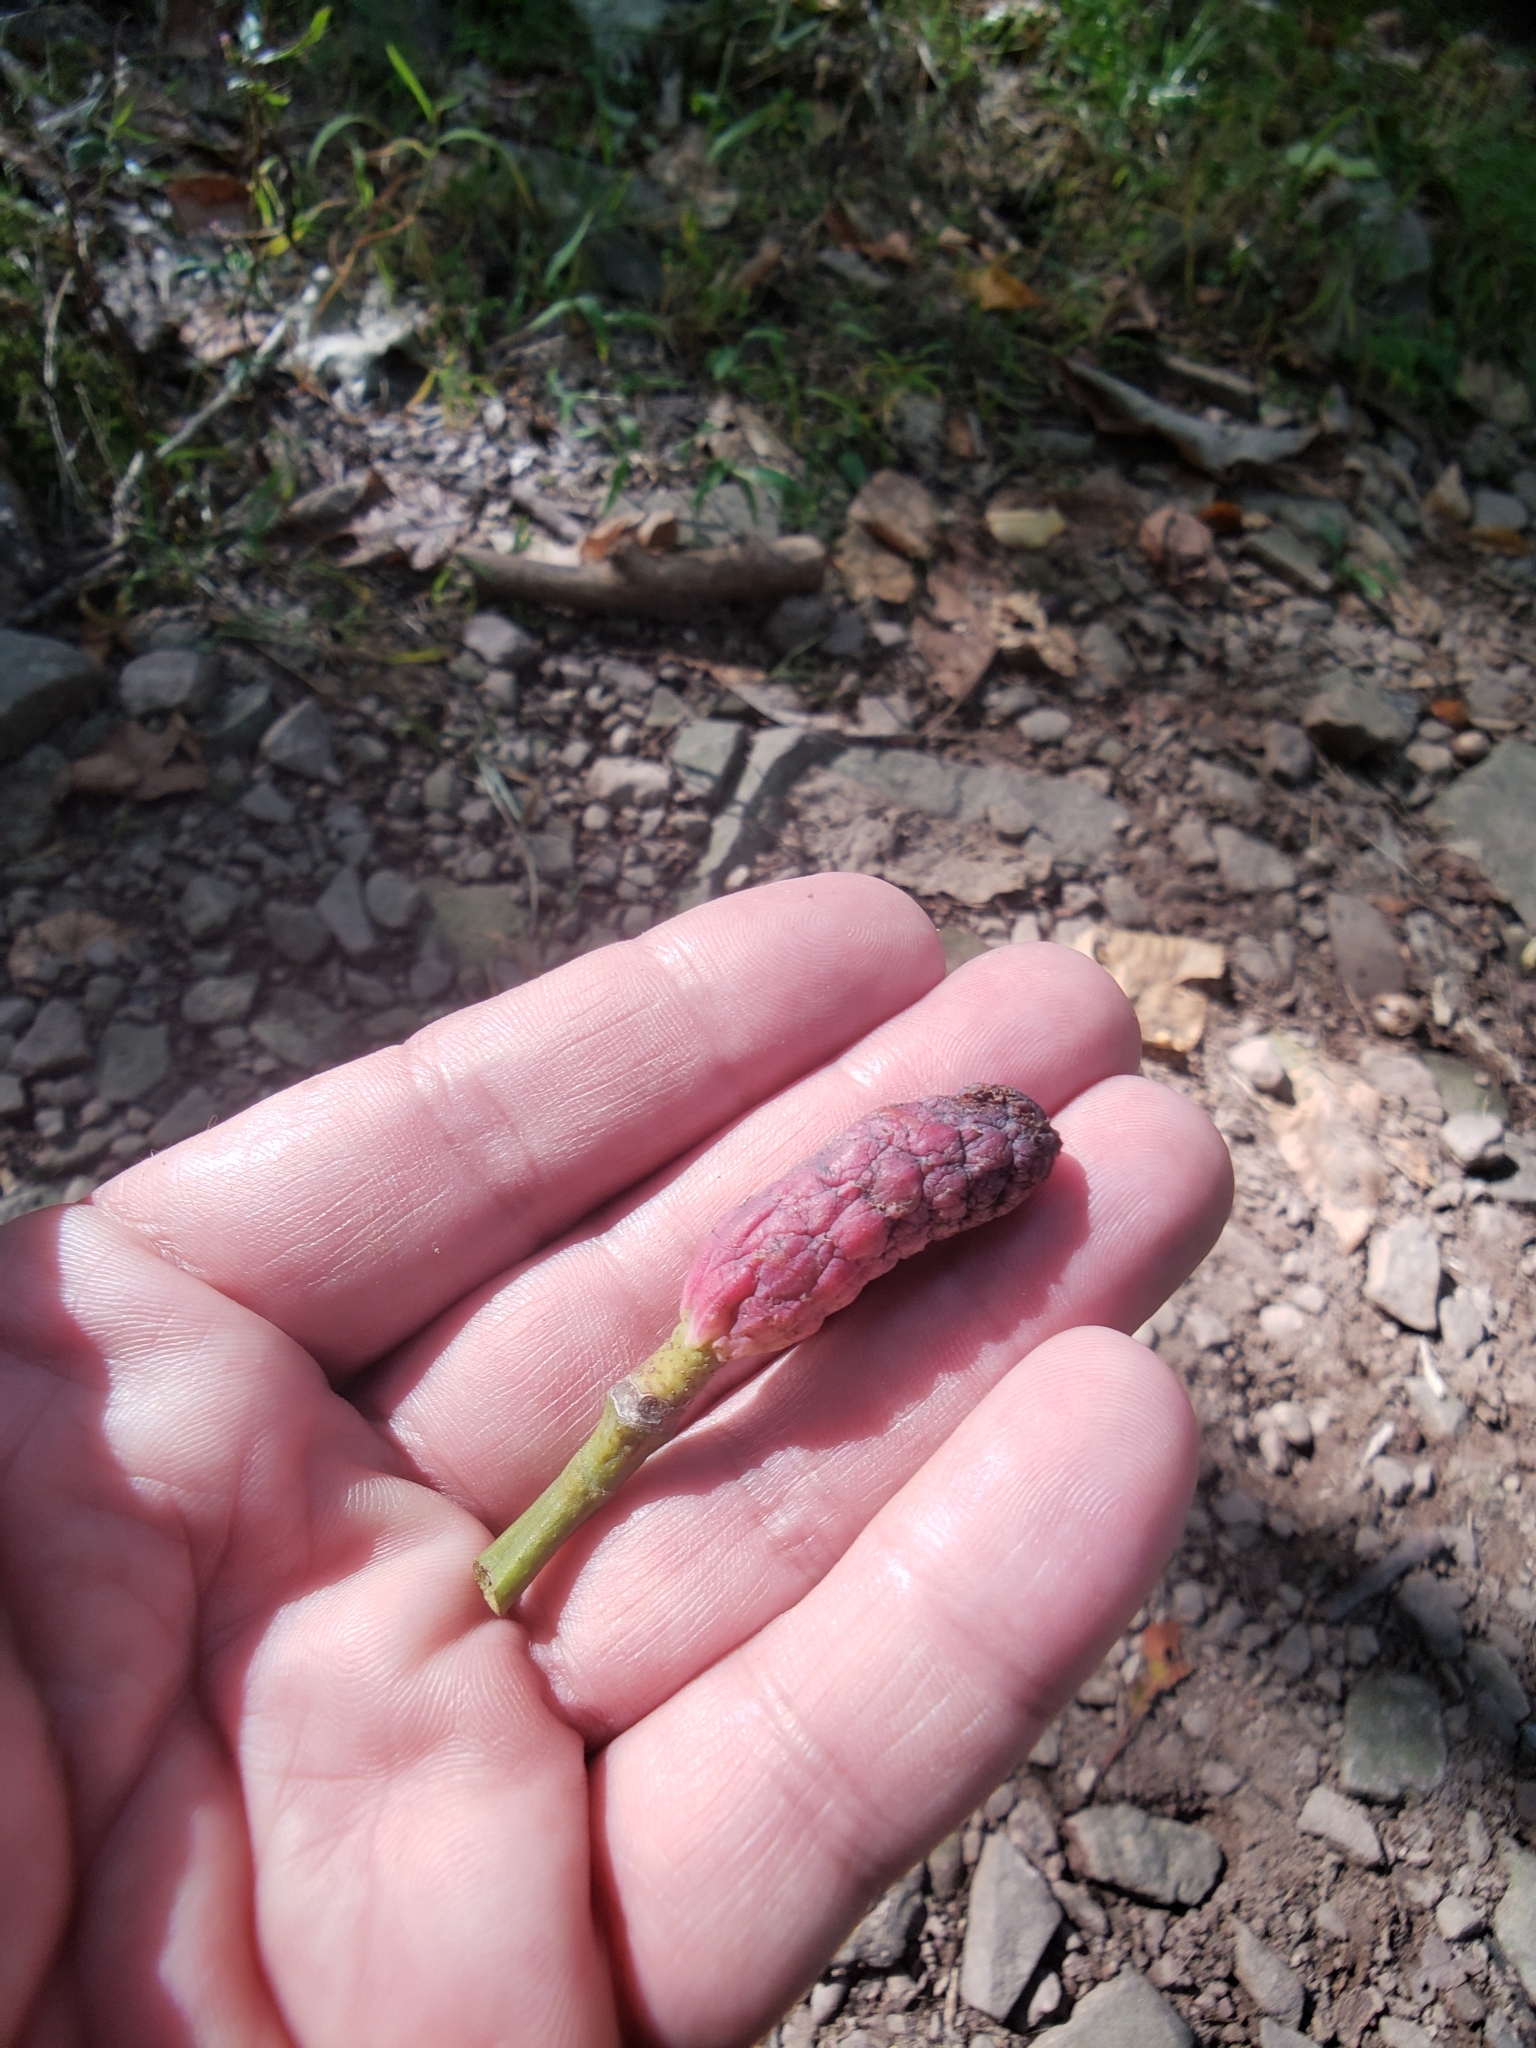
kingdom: Plantae
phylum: Tracheophyta
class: Magnoliopsida
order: Magnoliales
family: Magnoliaceae
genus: Magnolia
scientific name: Magnolia acuminata
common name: Cucumber magnolia
